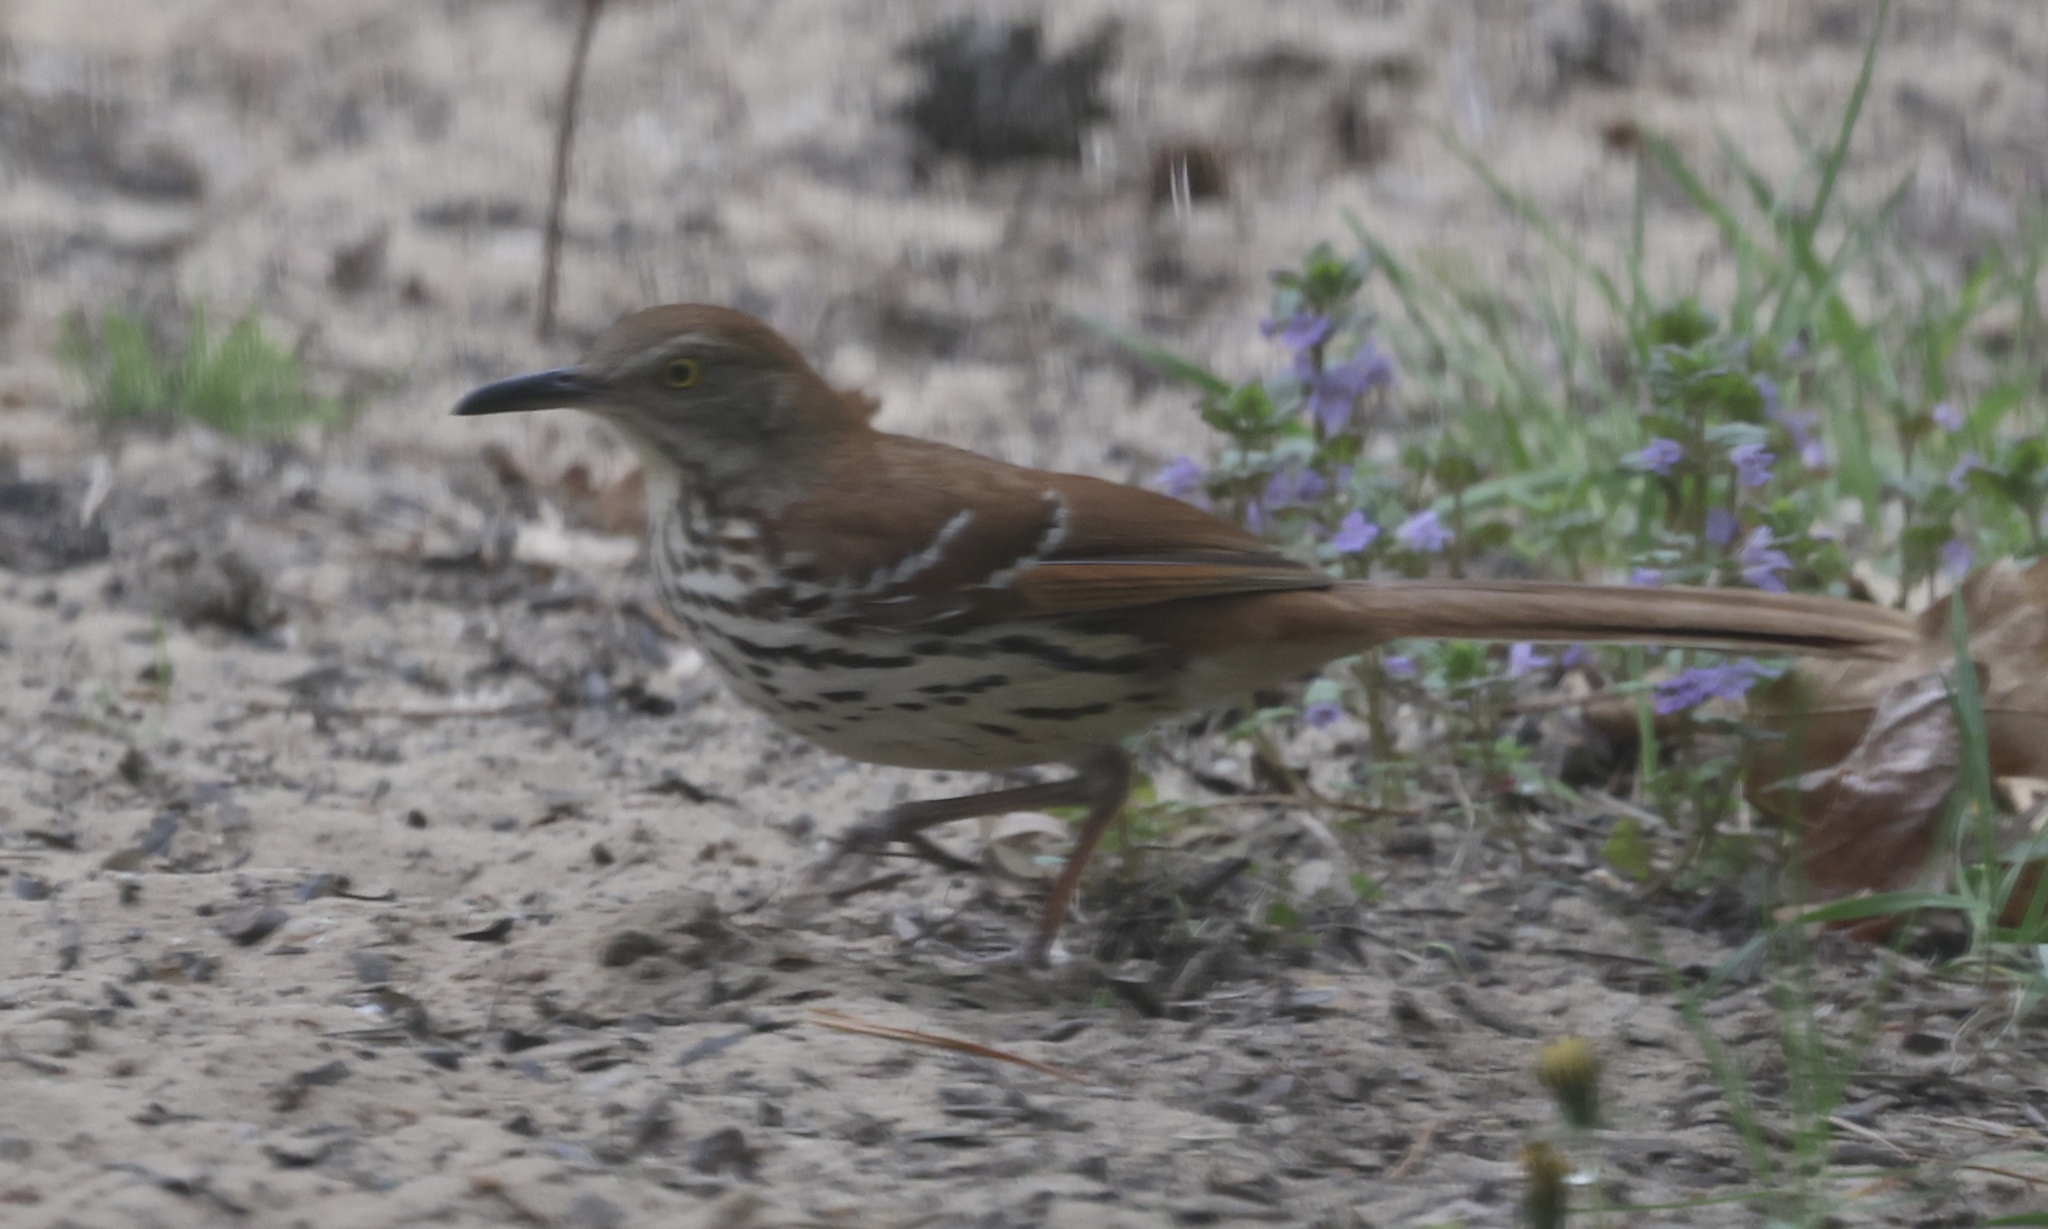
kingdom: Animalia
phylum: Chordata
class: Aves
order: Passeriformes
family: Mimidae
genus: Toxostoma
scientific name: Toxostoma rufum
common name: Brown thrasher
